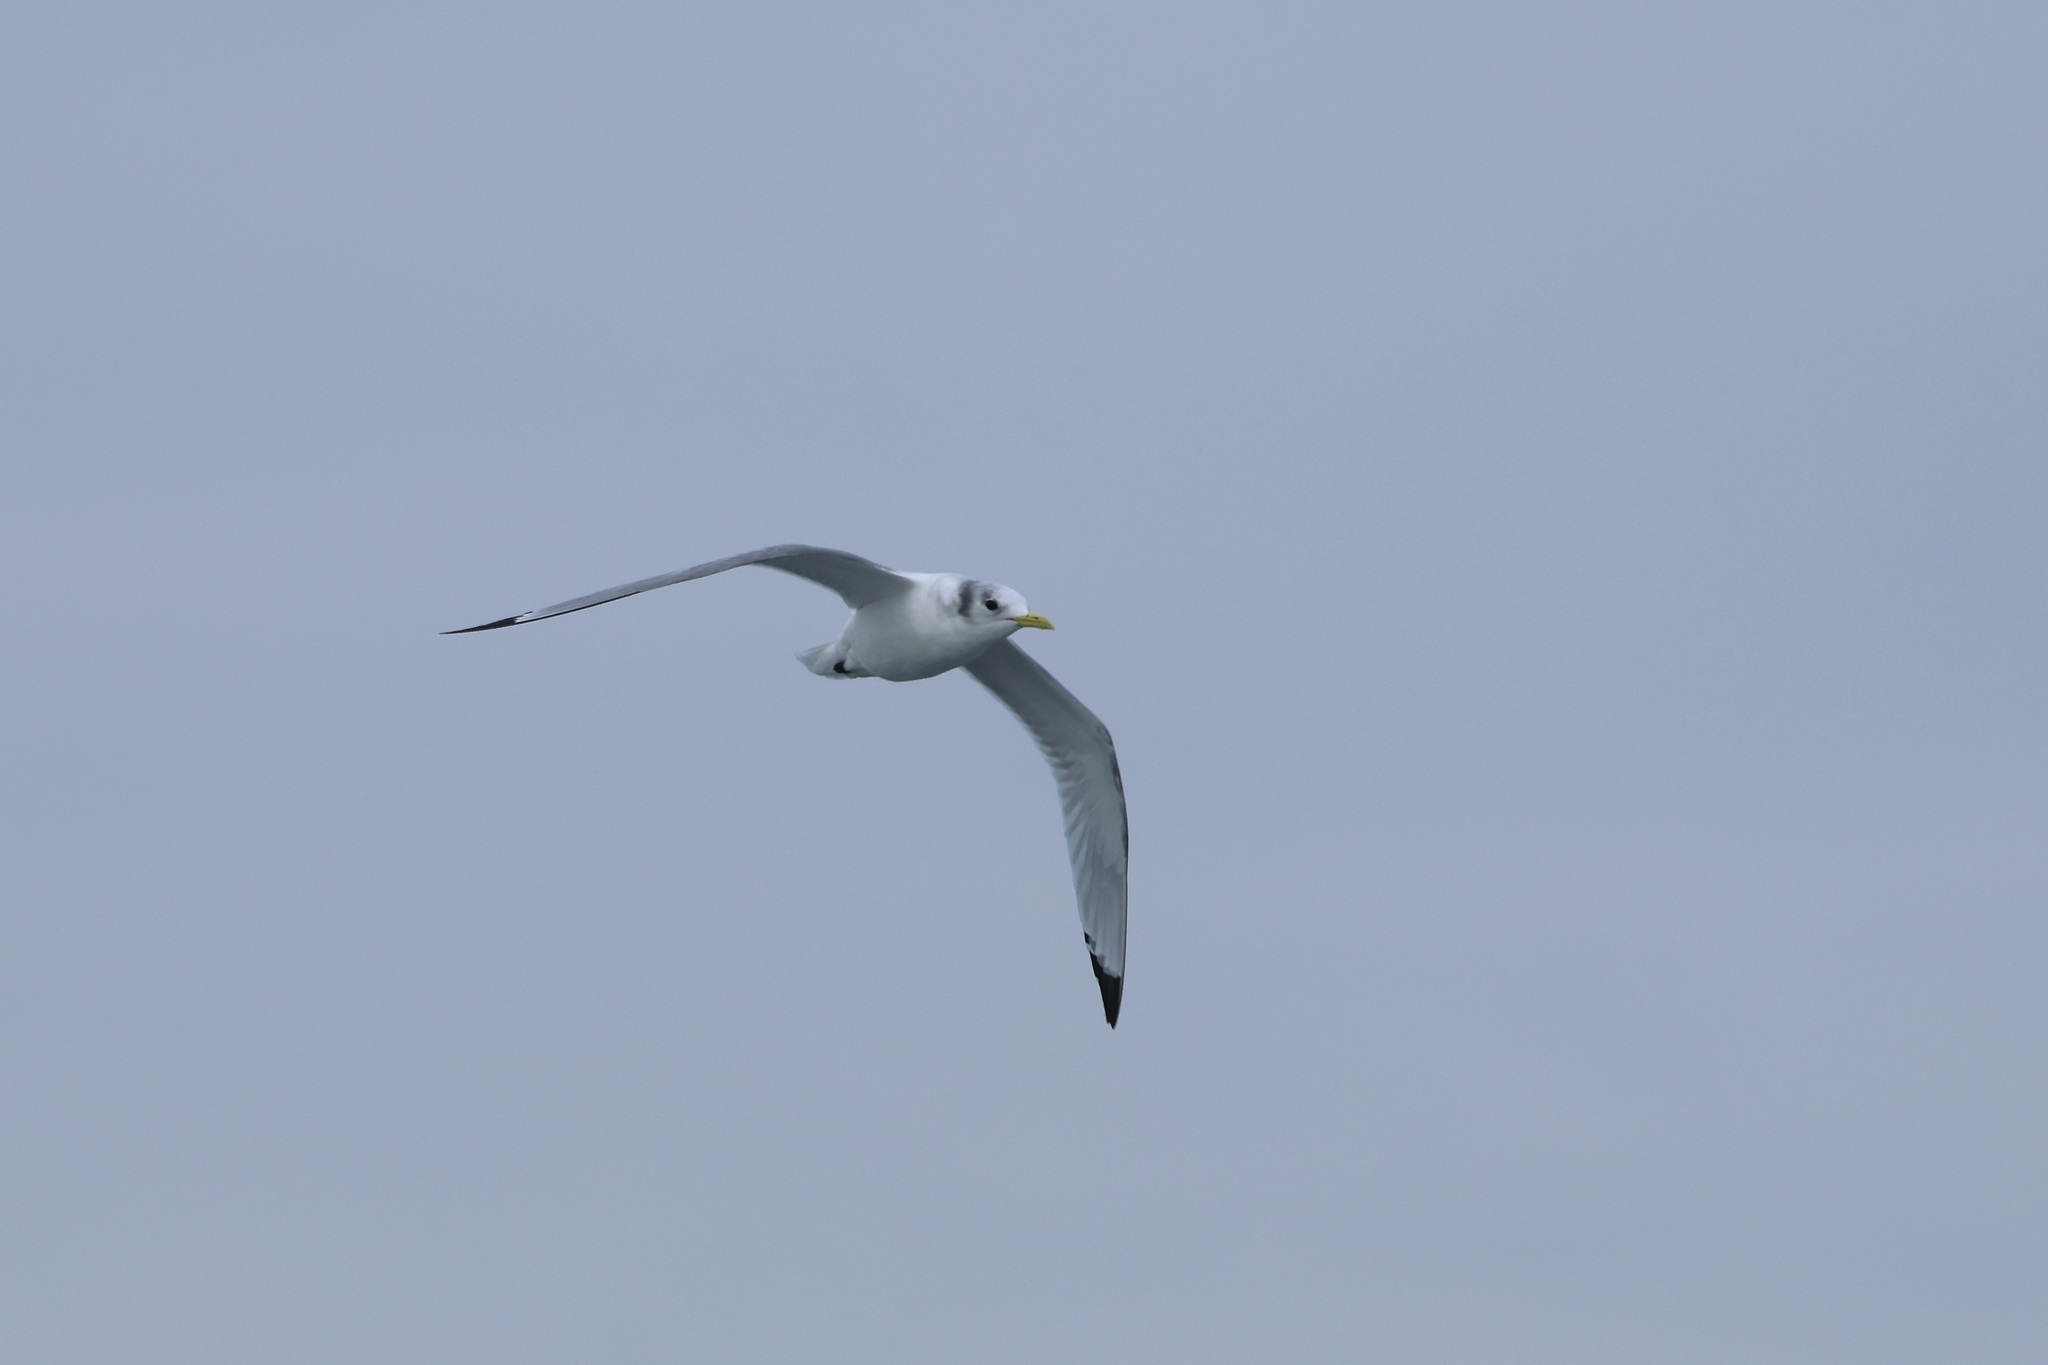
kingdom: Animalia
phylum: Chordata
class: Aves
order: Charadriiformes
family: Laridae
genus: Rissa
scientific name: Rissa tridactyla
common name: Black-legged kittiwake
